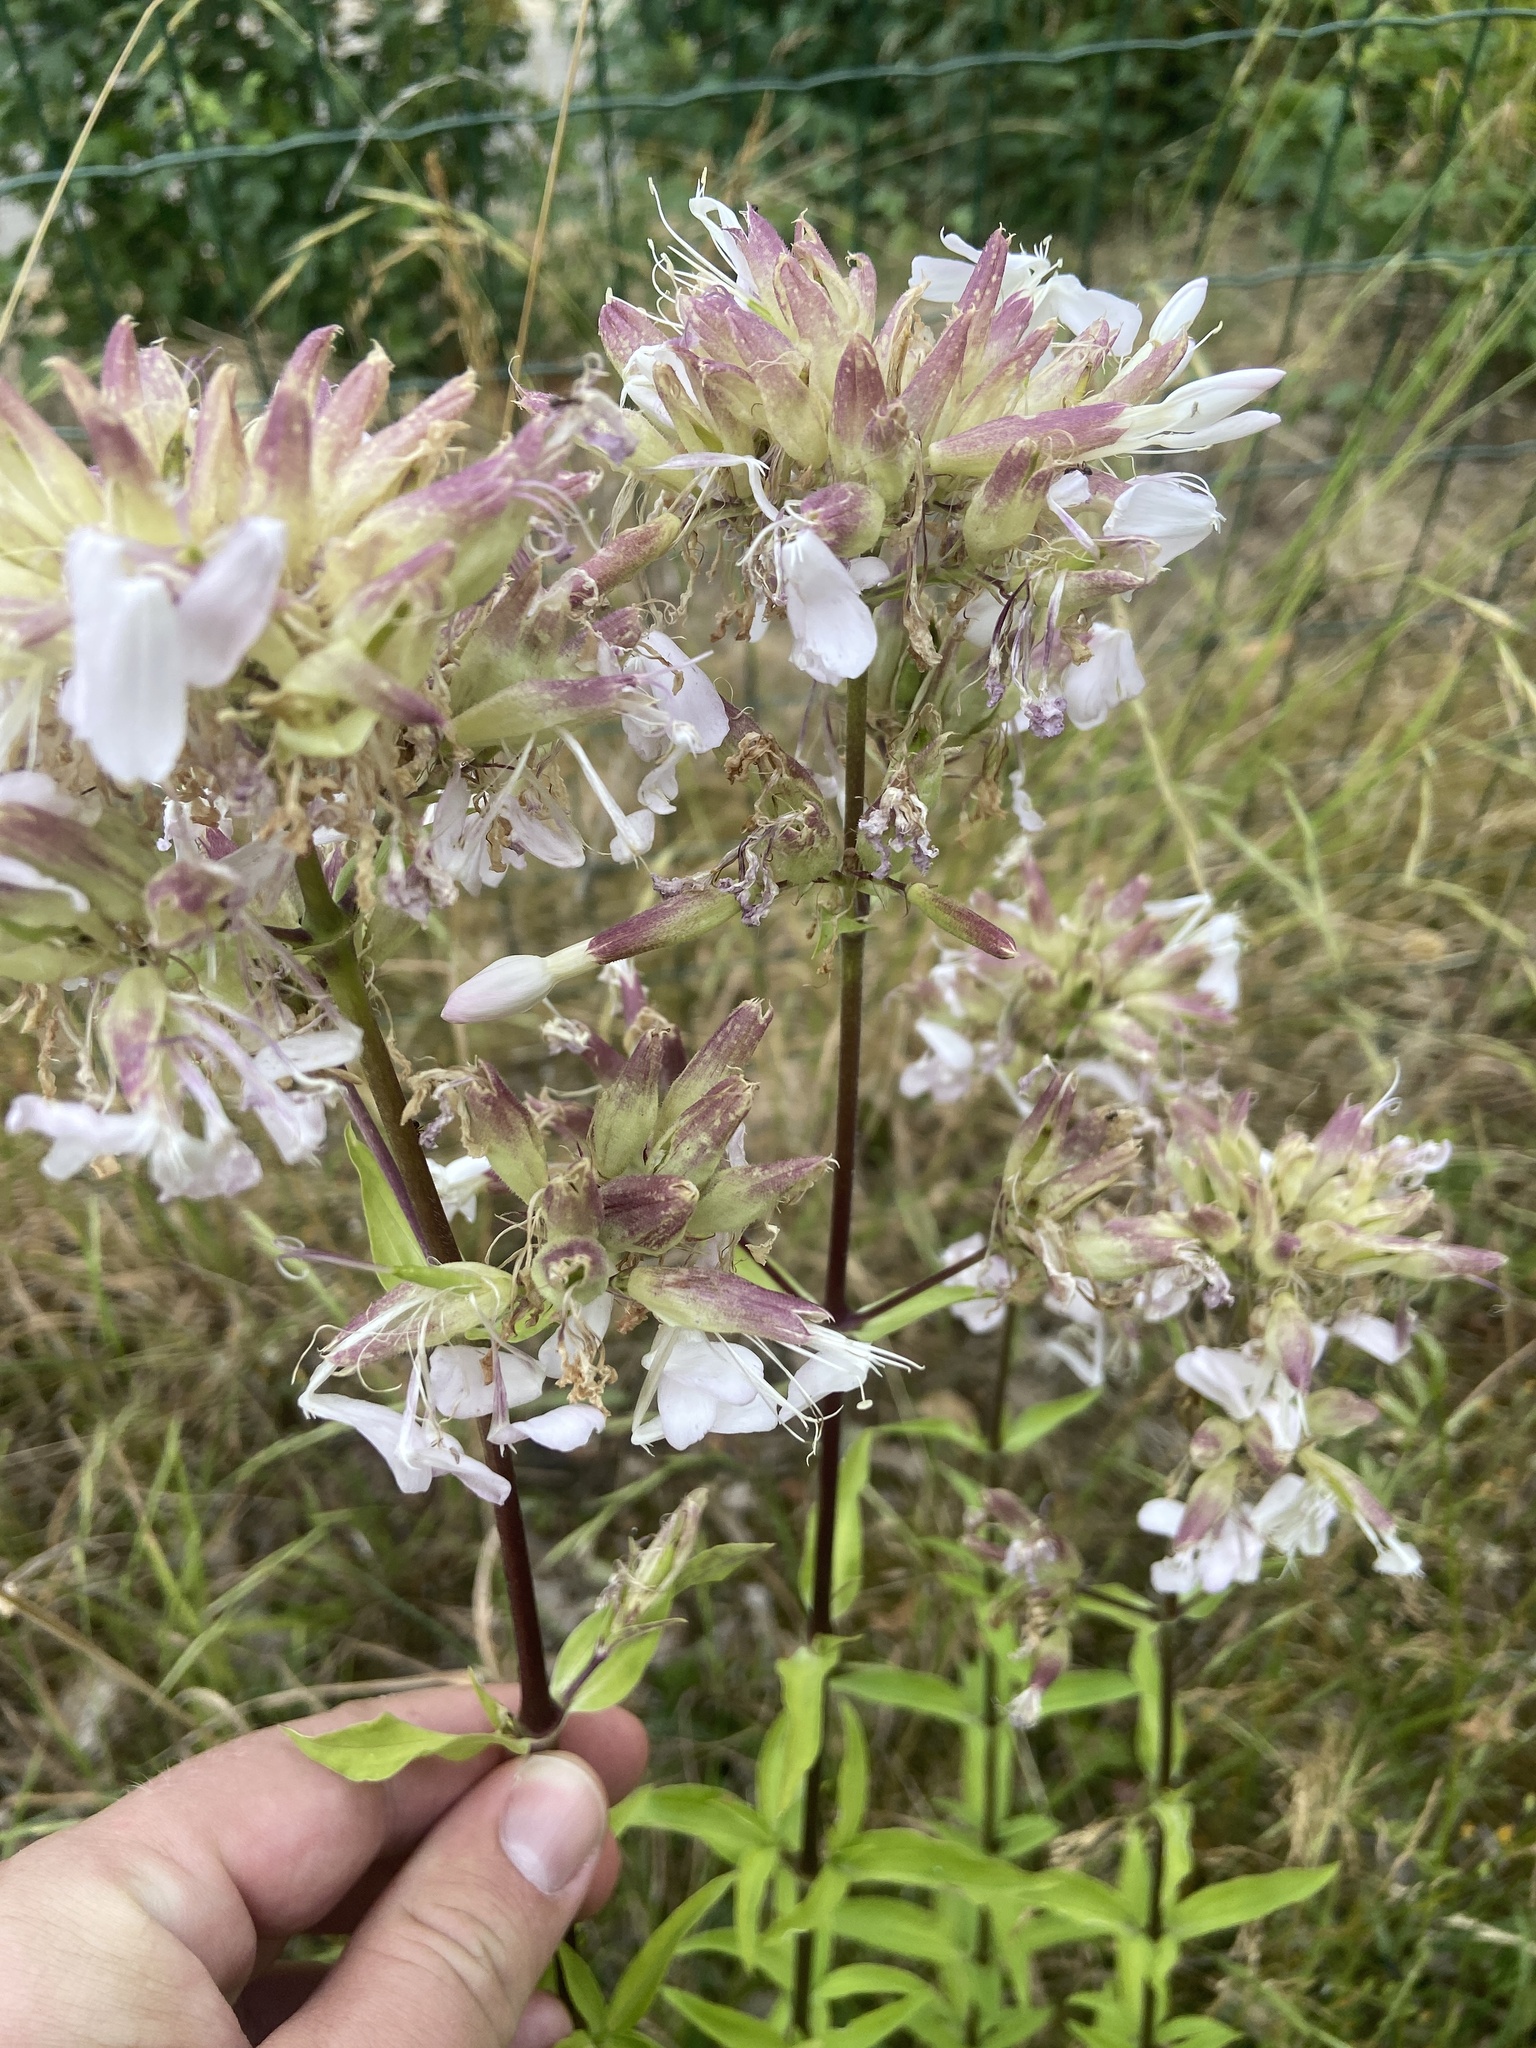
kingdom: Plantae
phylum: Tracheophyta
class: Magnoliopsida
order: Caryophyllales
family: Caryophyllaceae
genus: Saponaria
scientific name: Saponaria officinalis
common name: Soapwort
